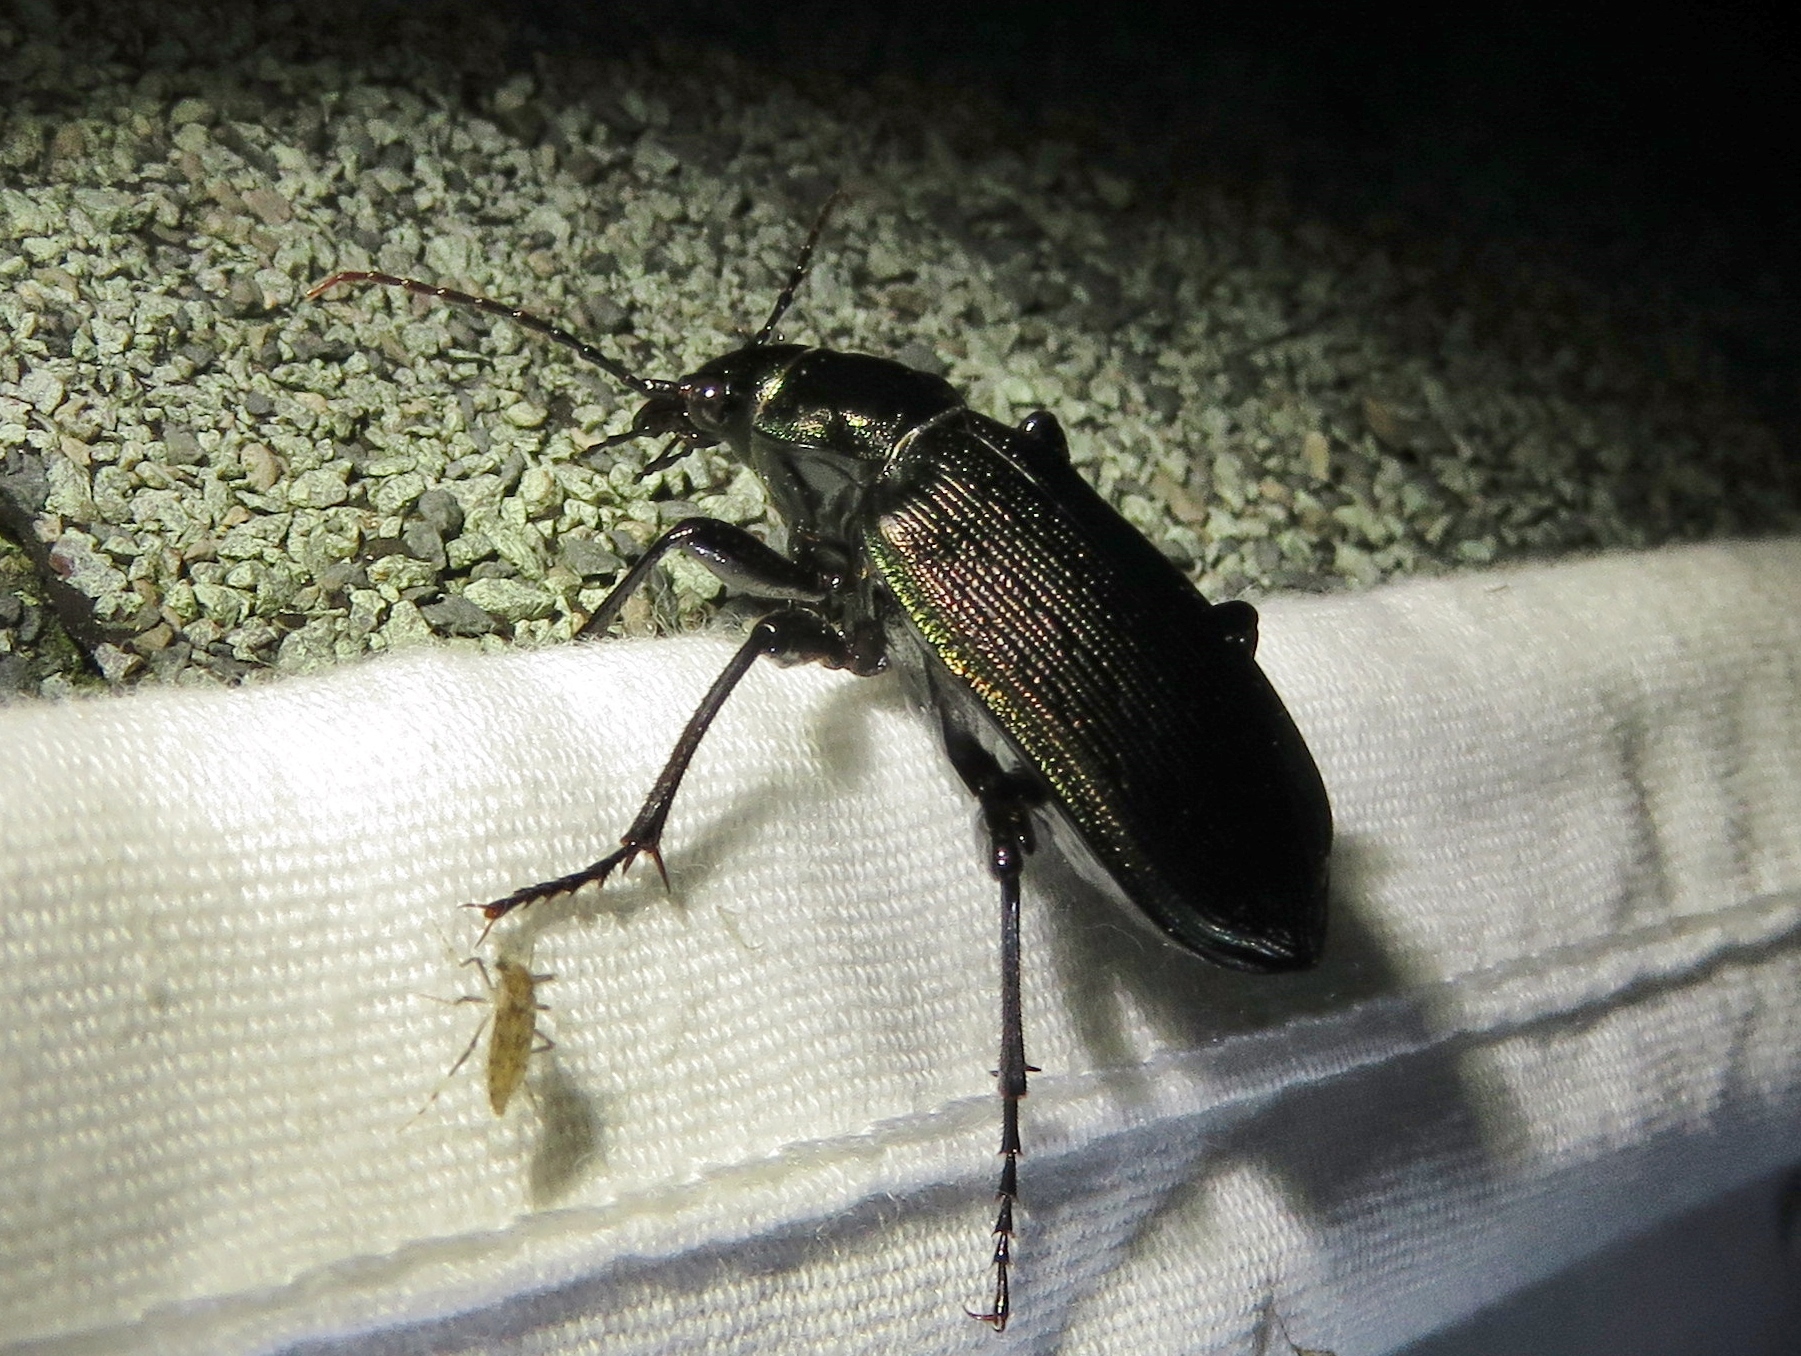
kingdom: Animalia
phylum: Arthropoda
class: Insecta
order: Coleoptera
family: Carabidae
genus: Calosoma
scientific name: Calosoma sayi
